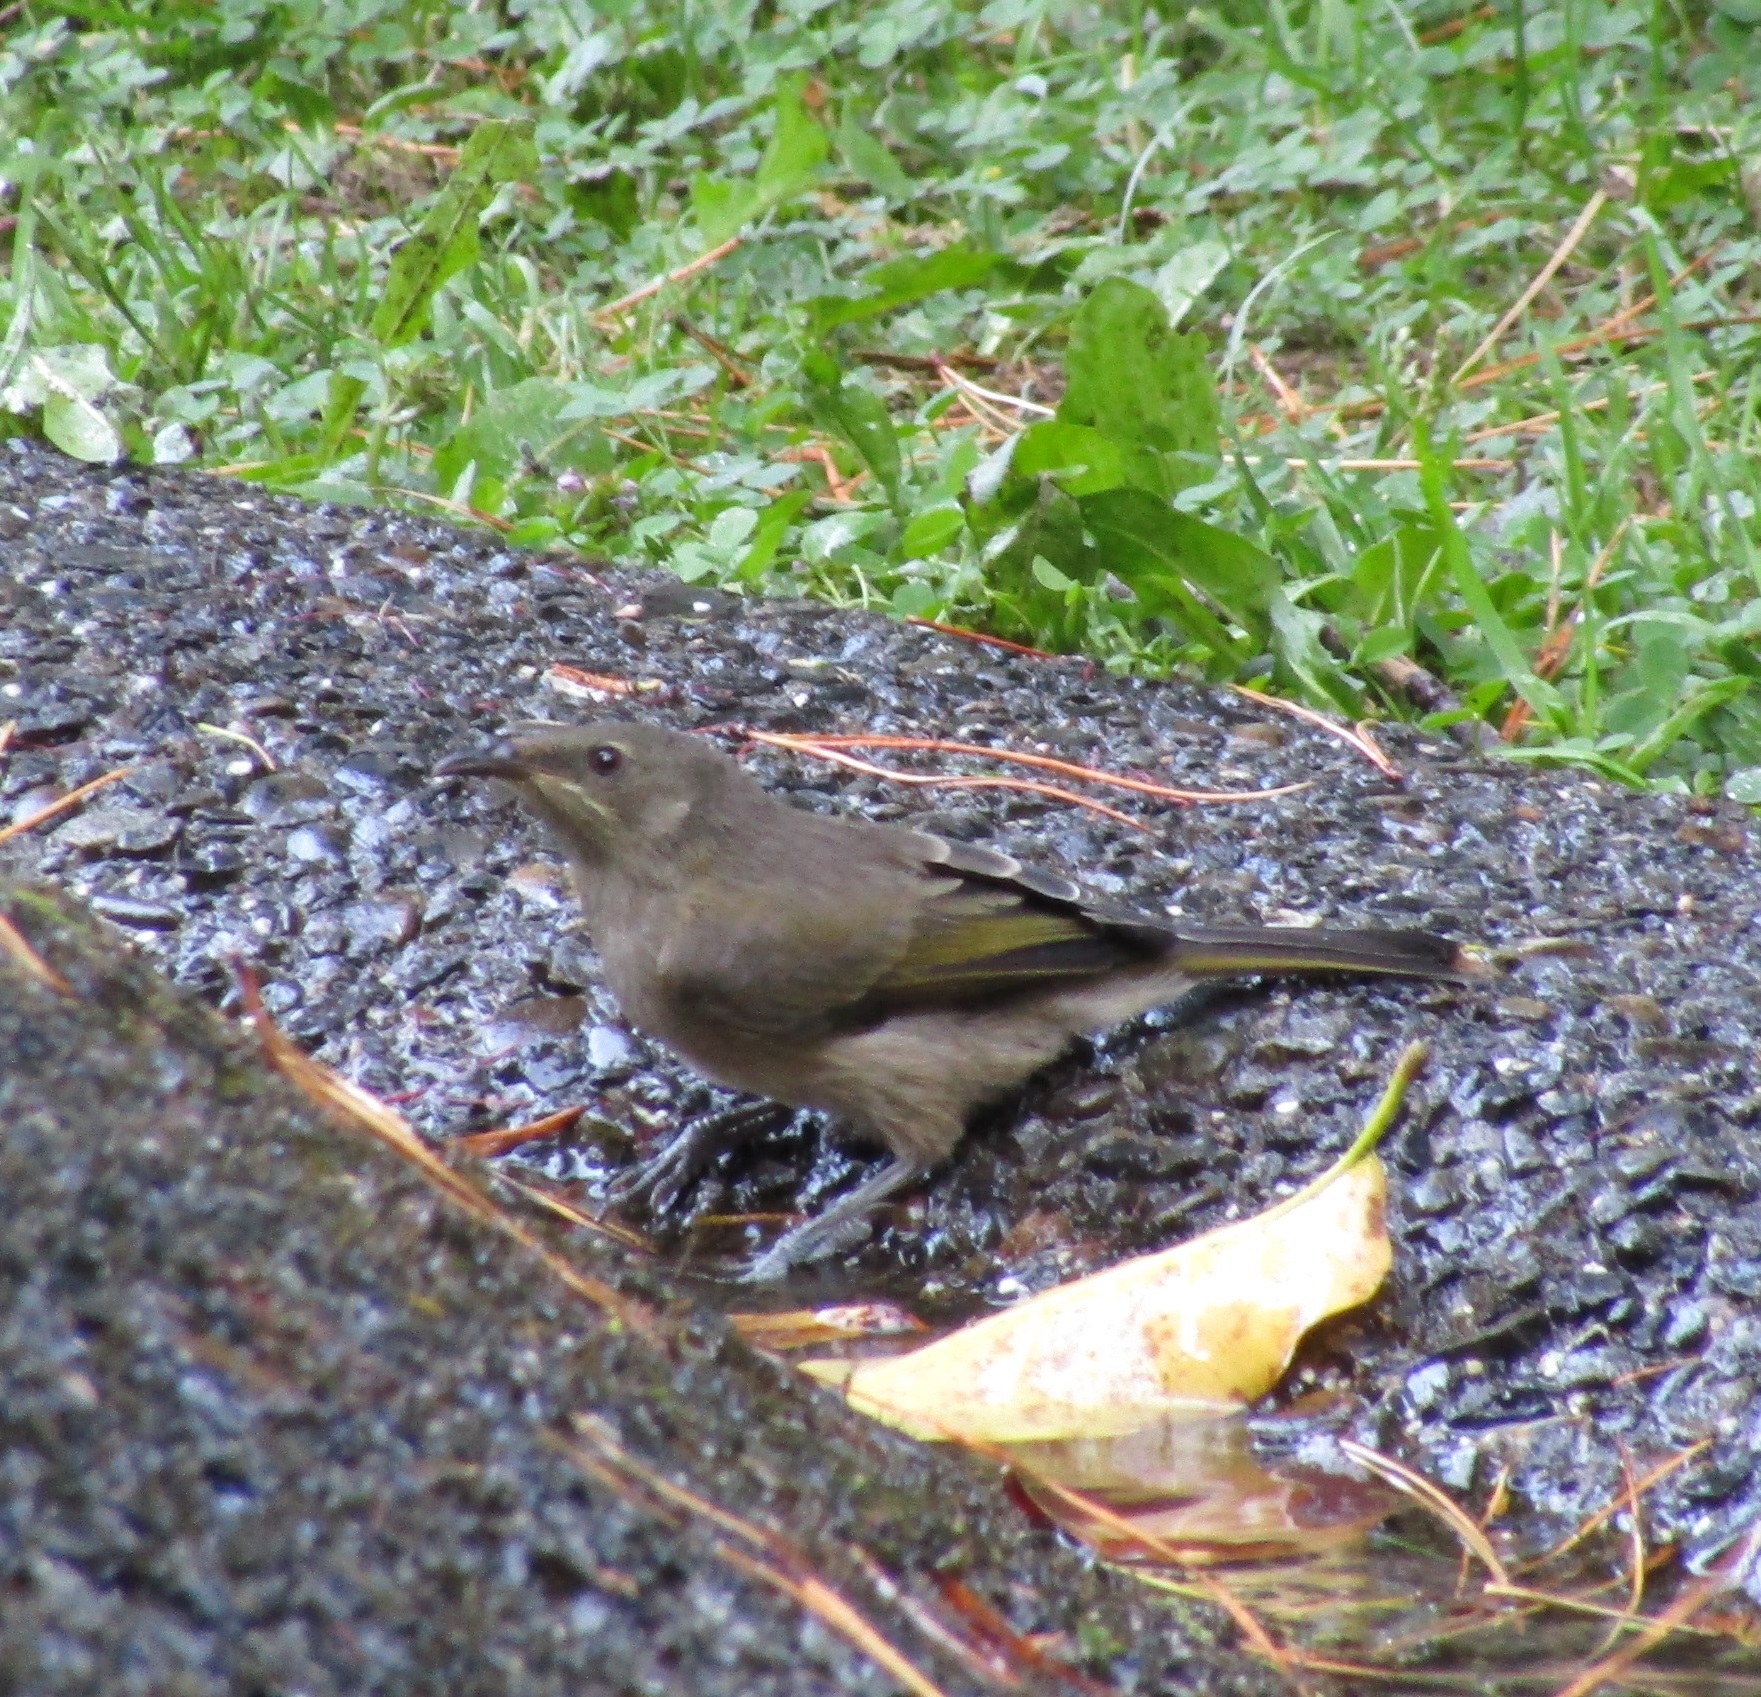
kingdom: Animalia
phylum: Chordata
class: Aves
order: Passeriformes
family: Meliphagidae
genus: Anthornis
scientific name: Anthornis melanura
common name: New zealand bellbird
